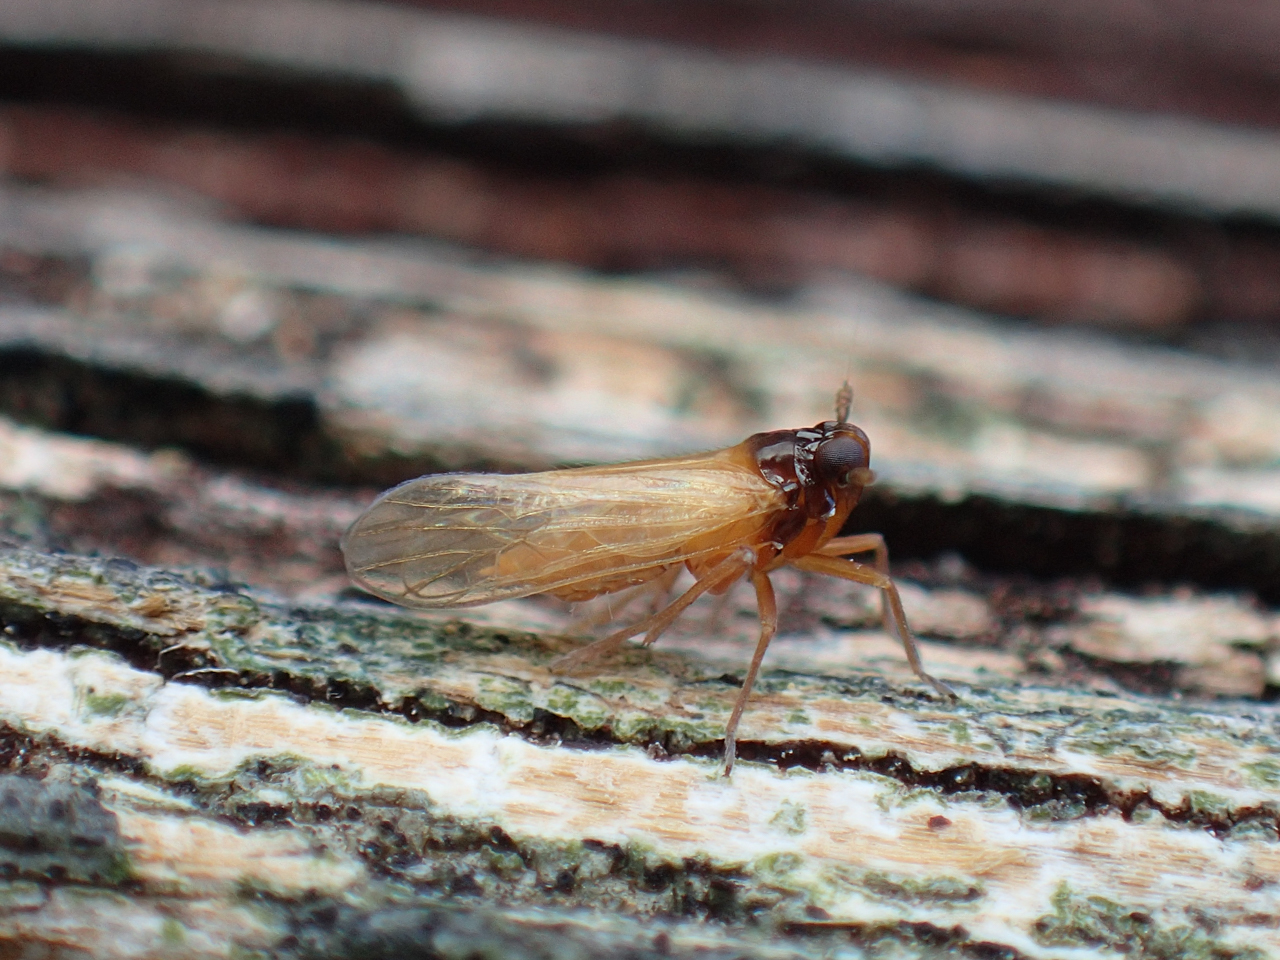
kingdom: Animalia
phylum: Arthropoda
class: Insecta
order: Hemiptera
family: Delphacidae
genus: Penepissonotus
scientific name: Penepissonotus bicolor
